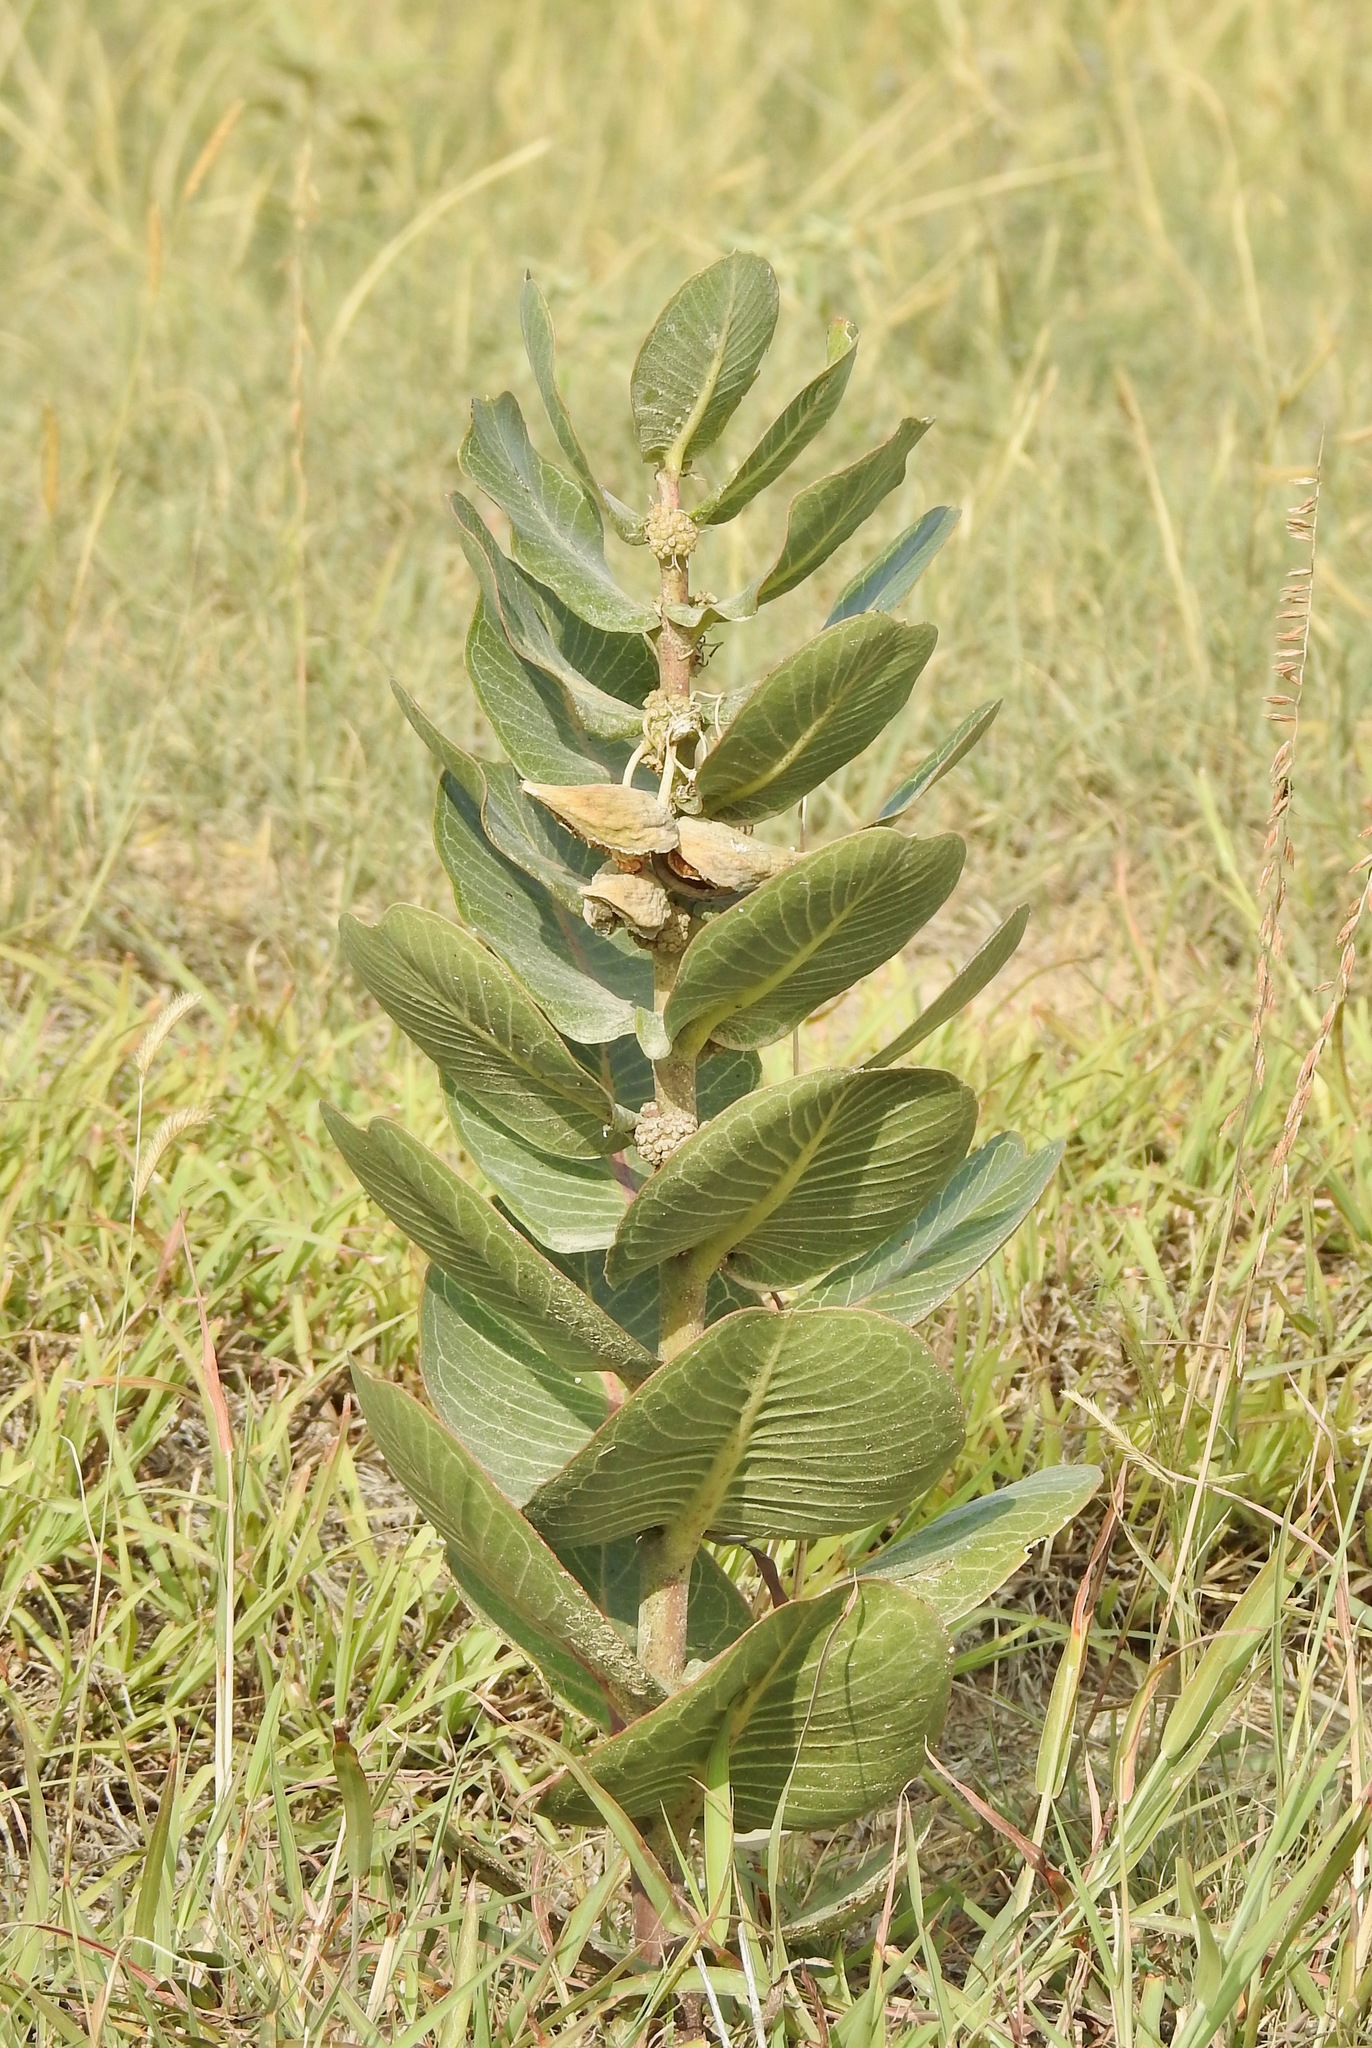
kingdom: Plantae
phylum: Tracheophyta
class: Magnoliopsida
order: Gentianales
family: Apocynaceae
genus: Asclepias
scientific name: Asclepias latifolia
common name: Broadleaf milkweed
